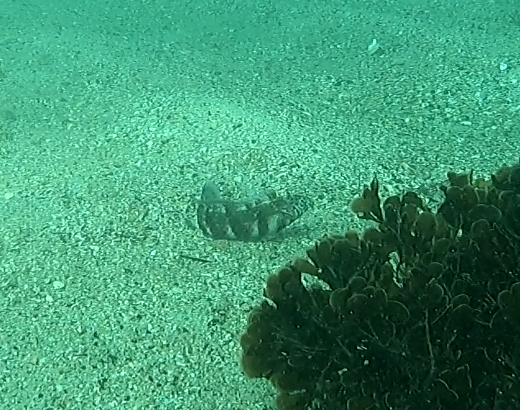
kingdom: Animalia
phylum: Chordata
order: Perciformes
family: Labridae
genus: Eupetrichthys
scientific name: Eupetrichthys angustipes
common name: Snake-skin wrasse
